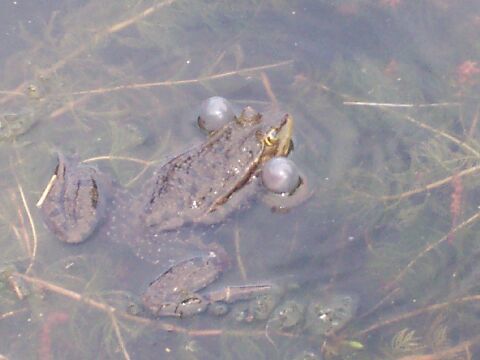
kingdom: Animalia
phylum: Chordata
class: Amphibia
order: Anura
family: Ranidae
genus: Pelophylax
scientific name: Pelophylax
